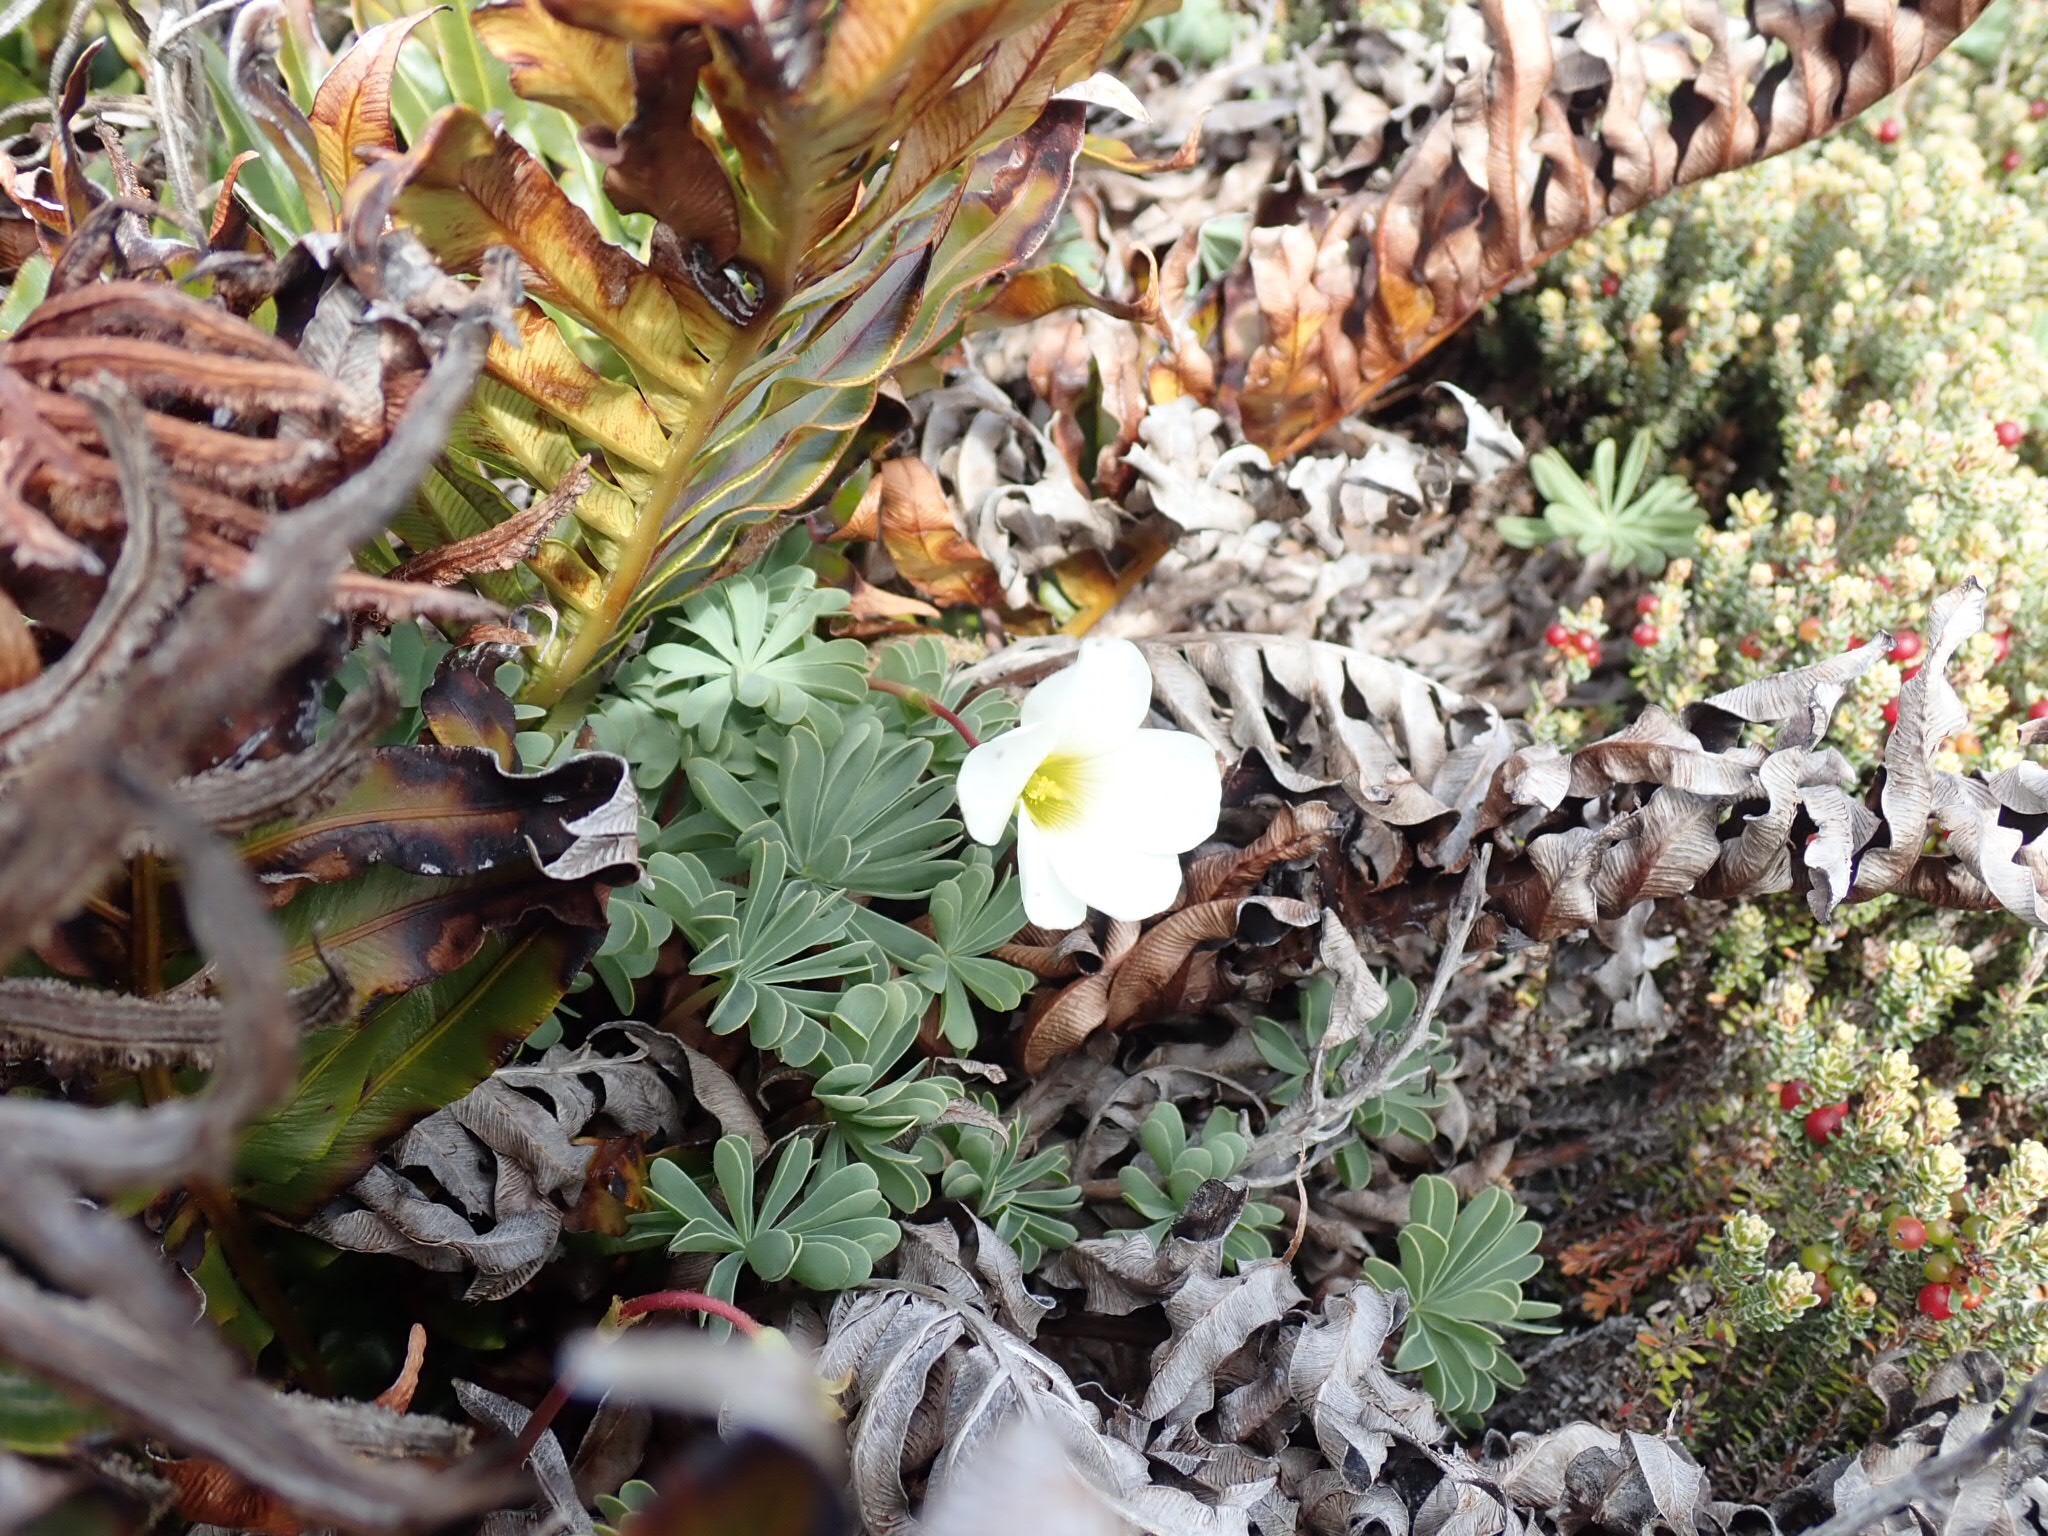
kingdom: Plantae
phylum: Tracheophyta
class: Magnoliopsida
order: Oxalidales
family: Oxalidaceae
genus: Oxalis
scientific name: Oxalis enneaphylla
